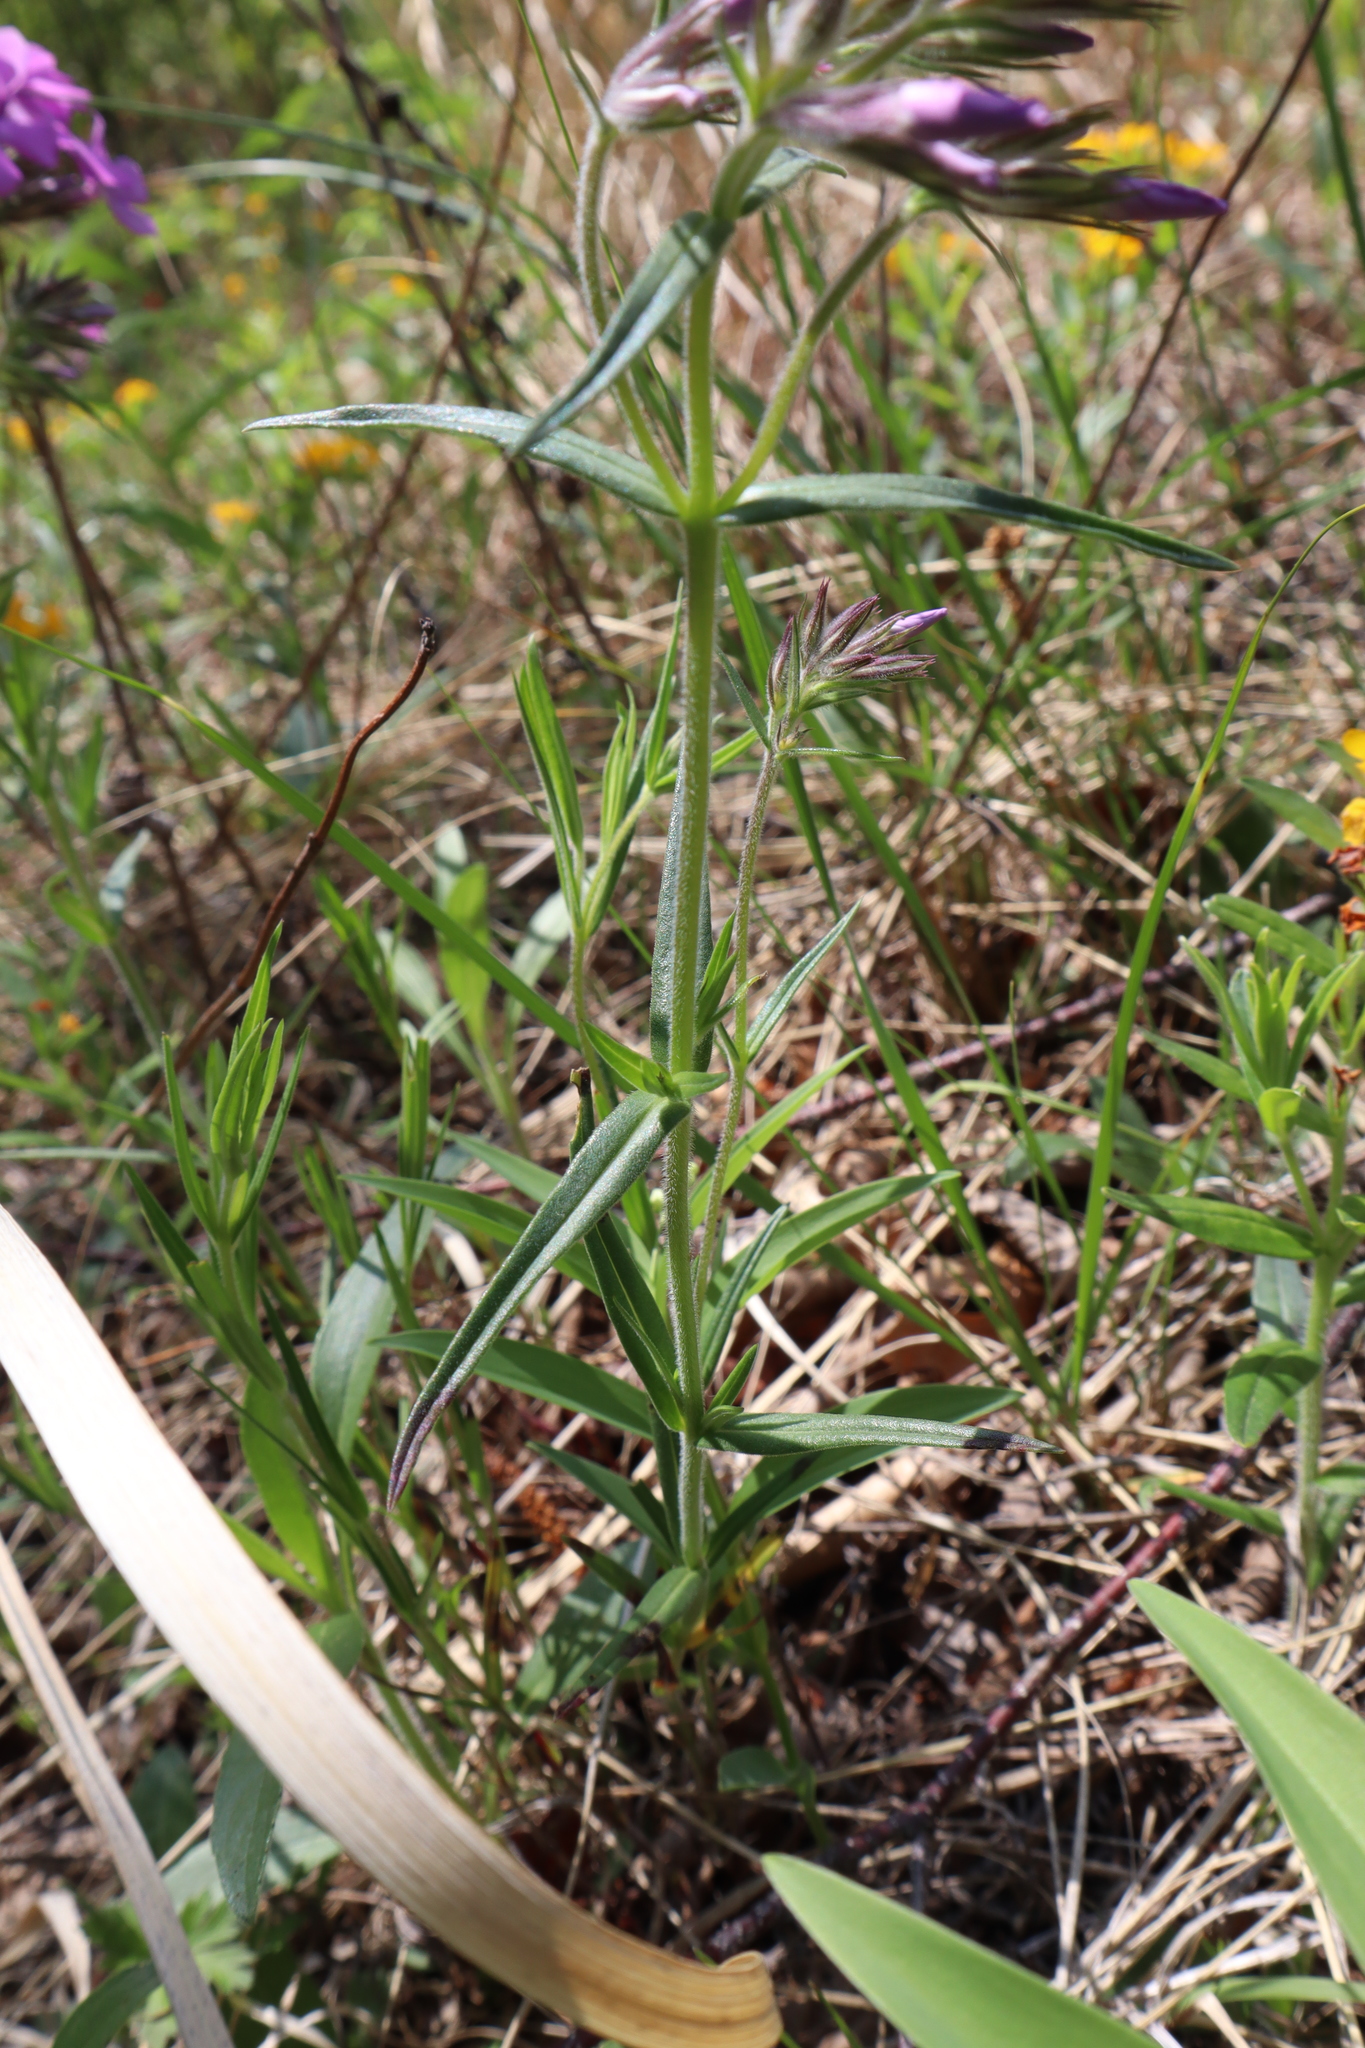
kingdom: Plantae
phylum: Tracheophyta
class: Magnoliopsida
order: Ericales
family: Polemoniaceae
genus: Phlox
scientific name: Phlox pilosa
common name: Prairie phlox
